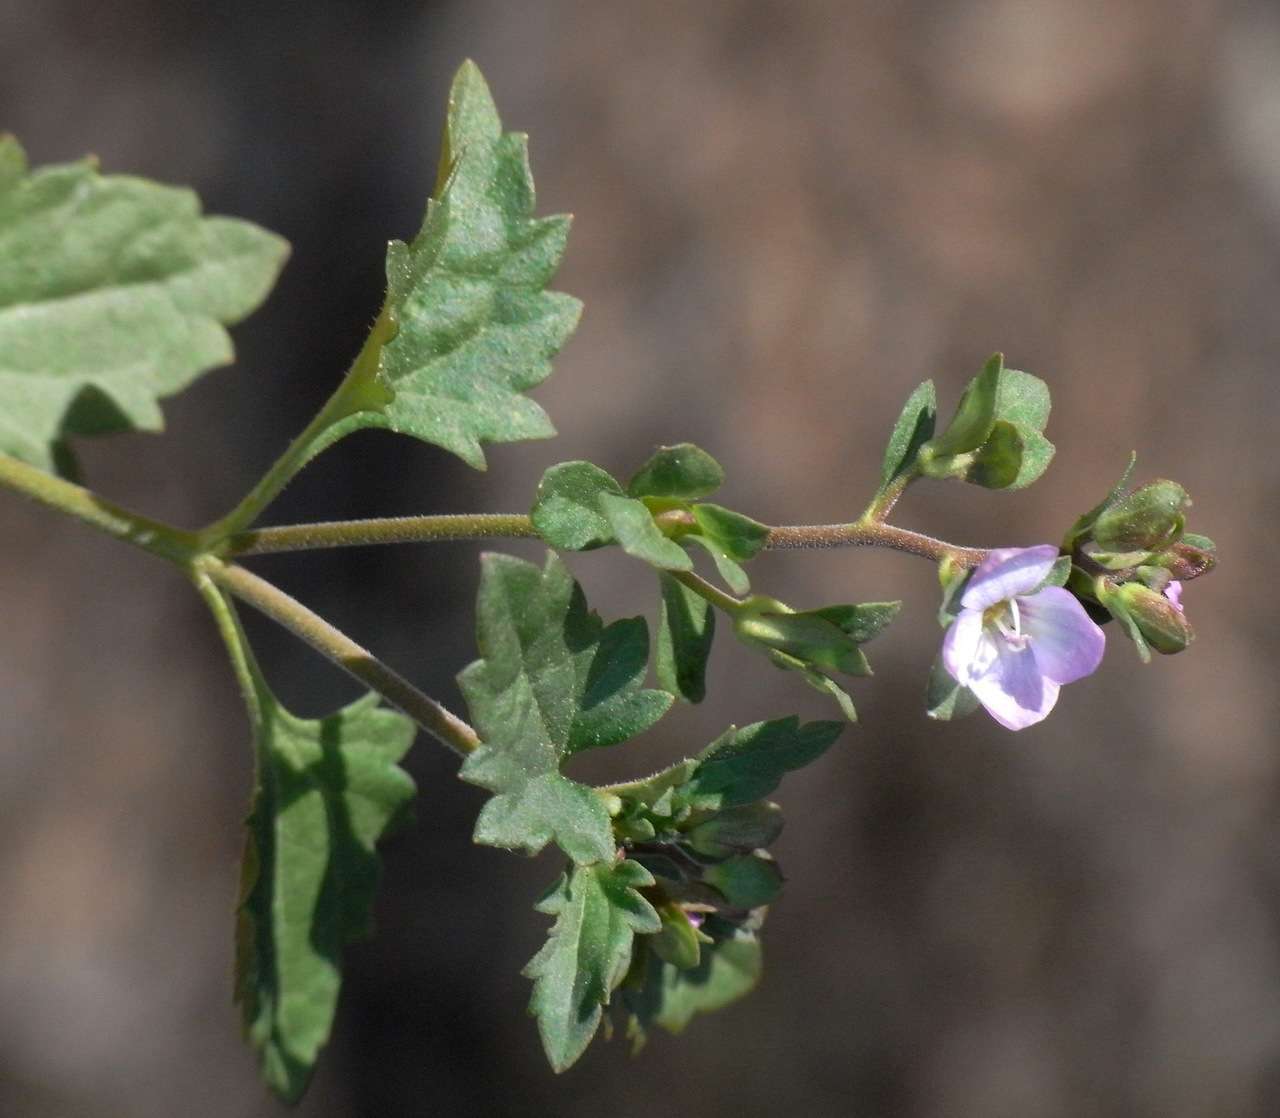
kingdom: Plantae
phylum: Tracheophyta
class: Magnoliopsida
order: Lamiales
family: Plantaginaceae
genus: Veronica
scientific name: Veronica plebeia
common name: Speedwell
